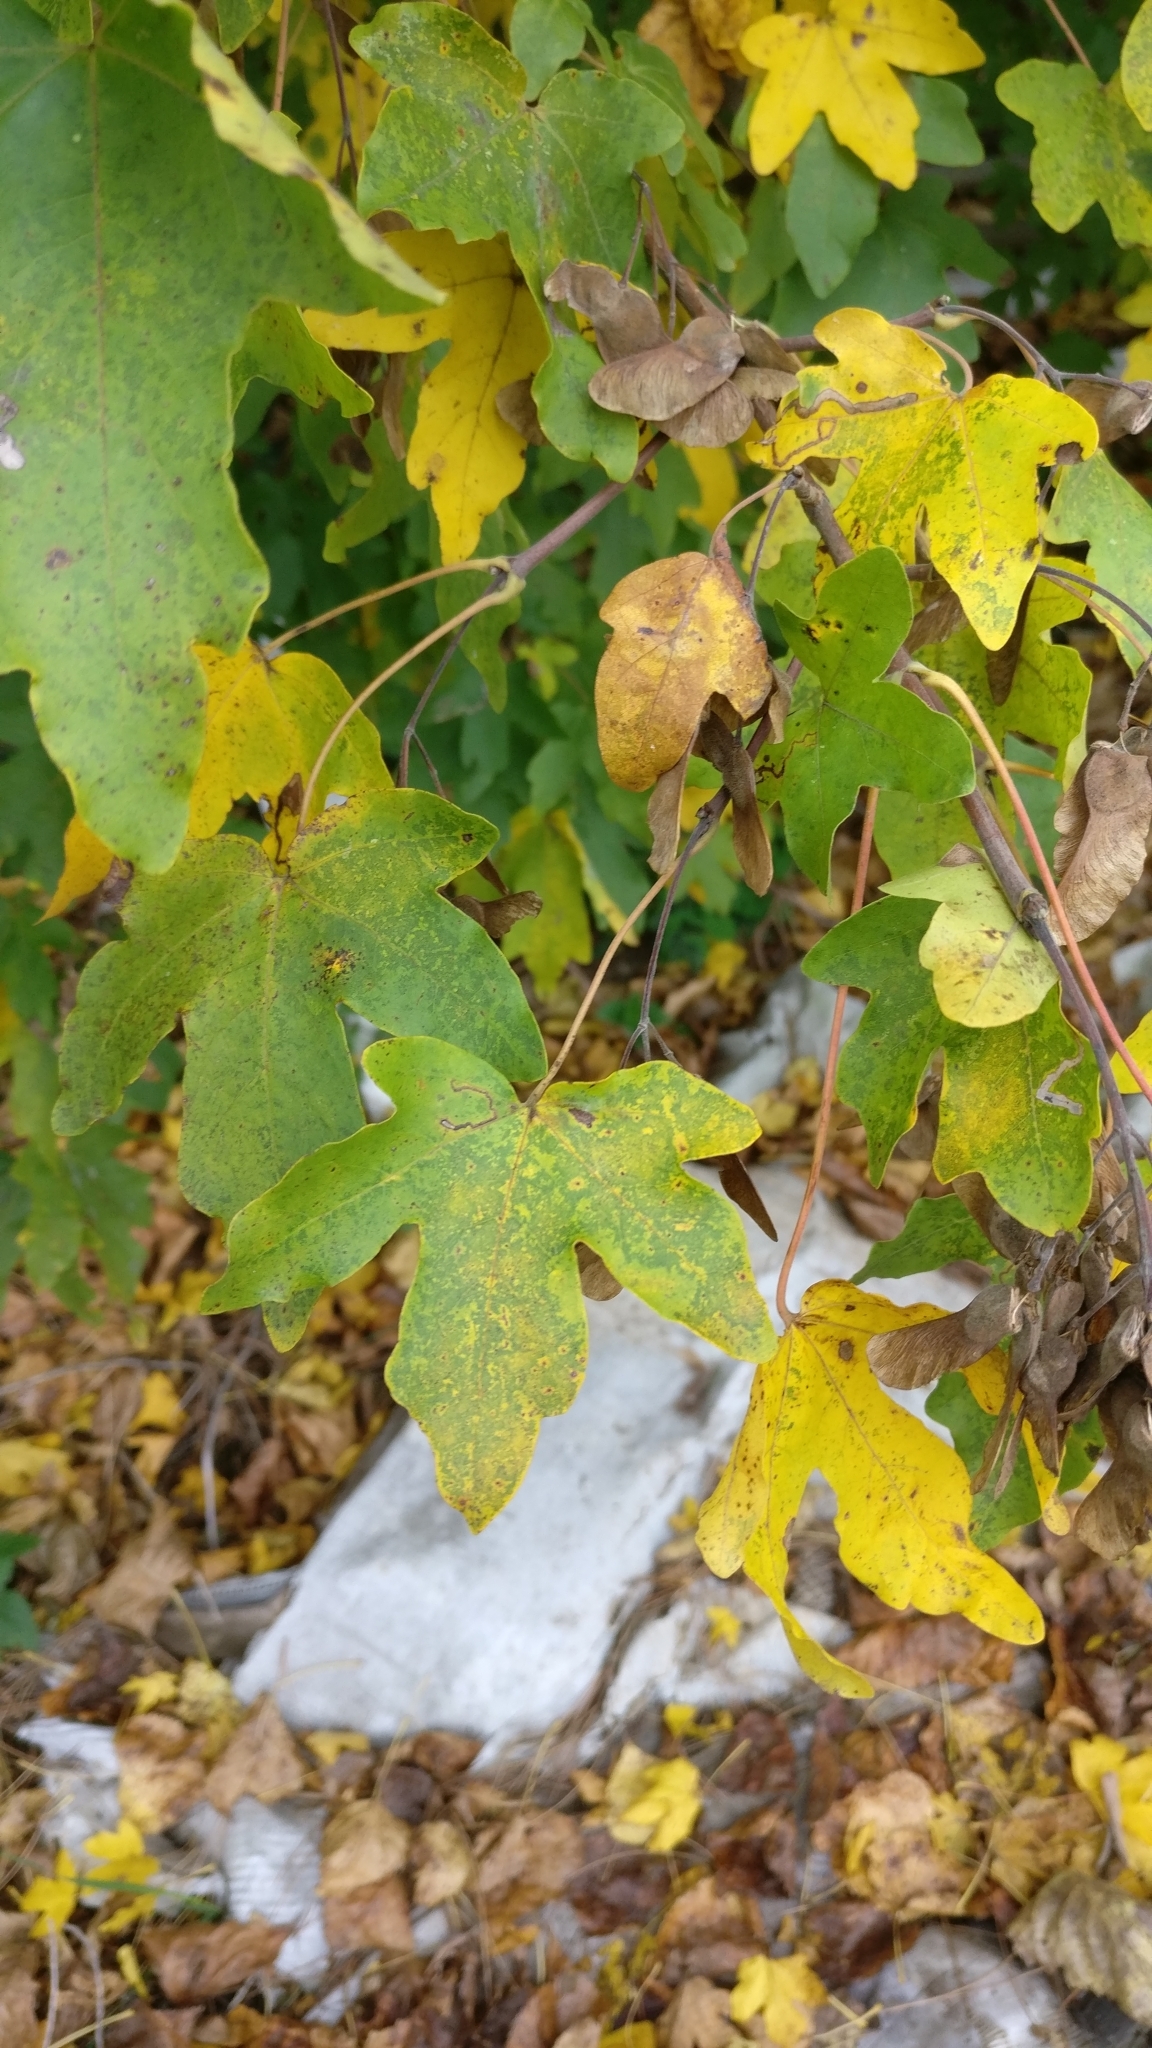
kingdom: Plantae
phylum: Tracheophyta
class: Magnoliopsida
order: Sapindales
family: Sapindaceae
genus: Acer
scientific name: Acer campestre
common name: Field maple
